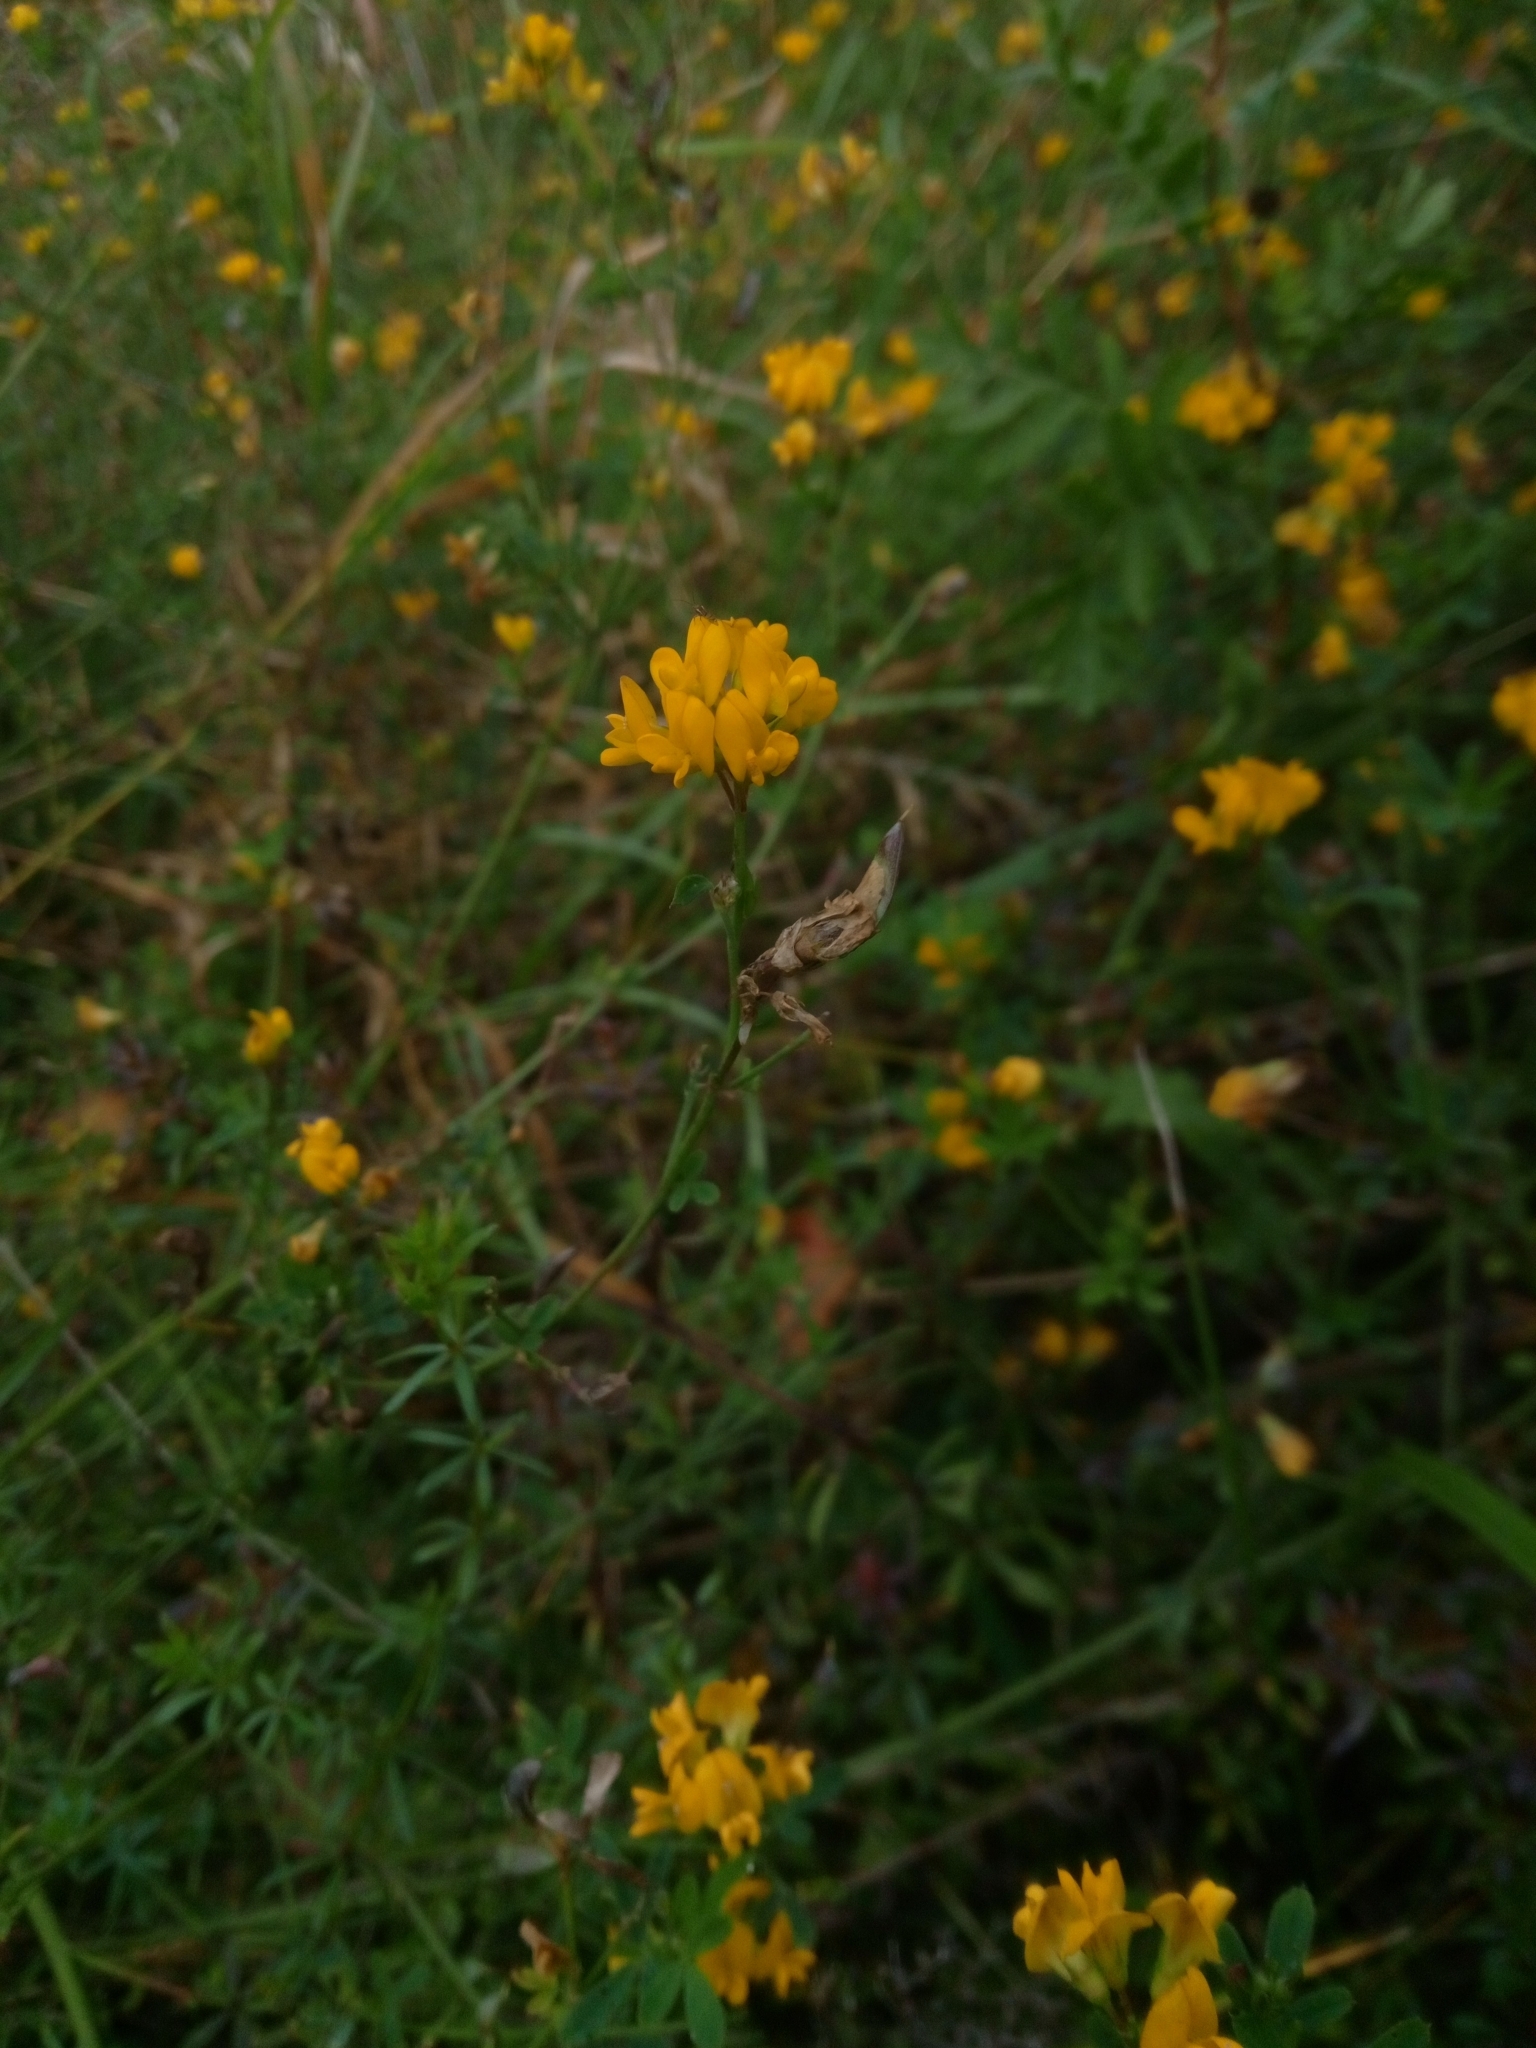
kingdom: Plantae
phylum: Tracheophyta
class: Magnoliopsida
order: Fabales
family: Fabaceae
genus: Medicago
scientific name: Medicago falcata
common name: Sickle medick
